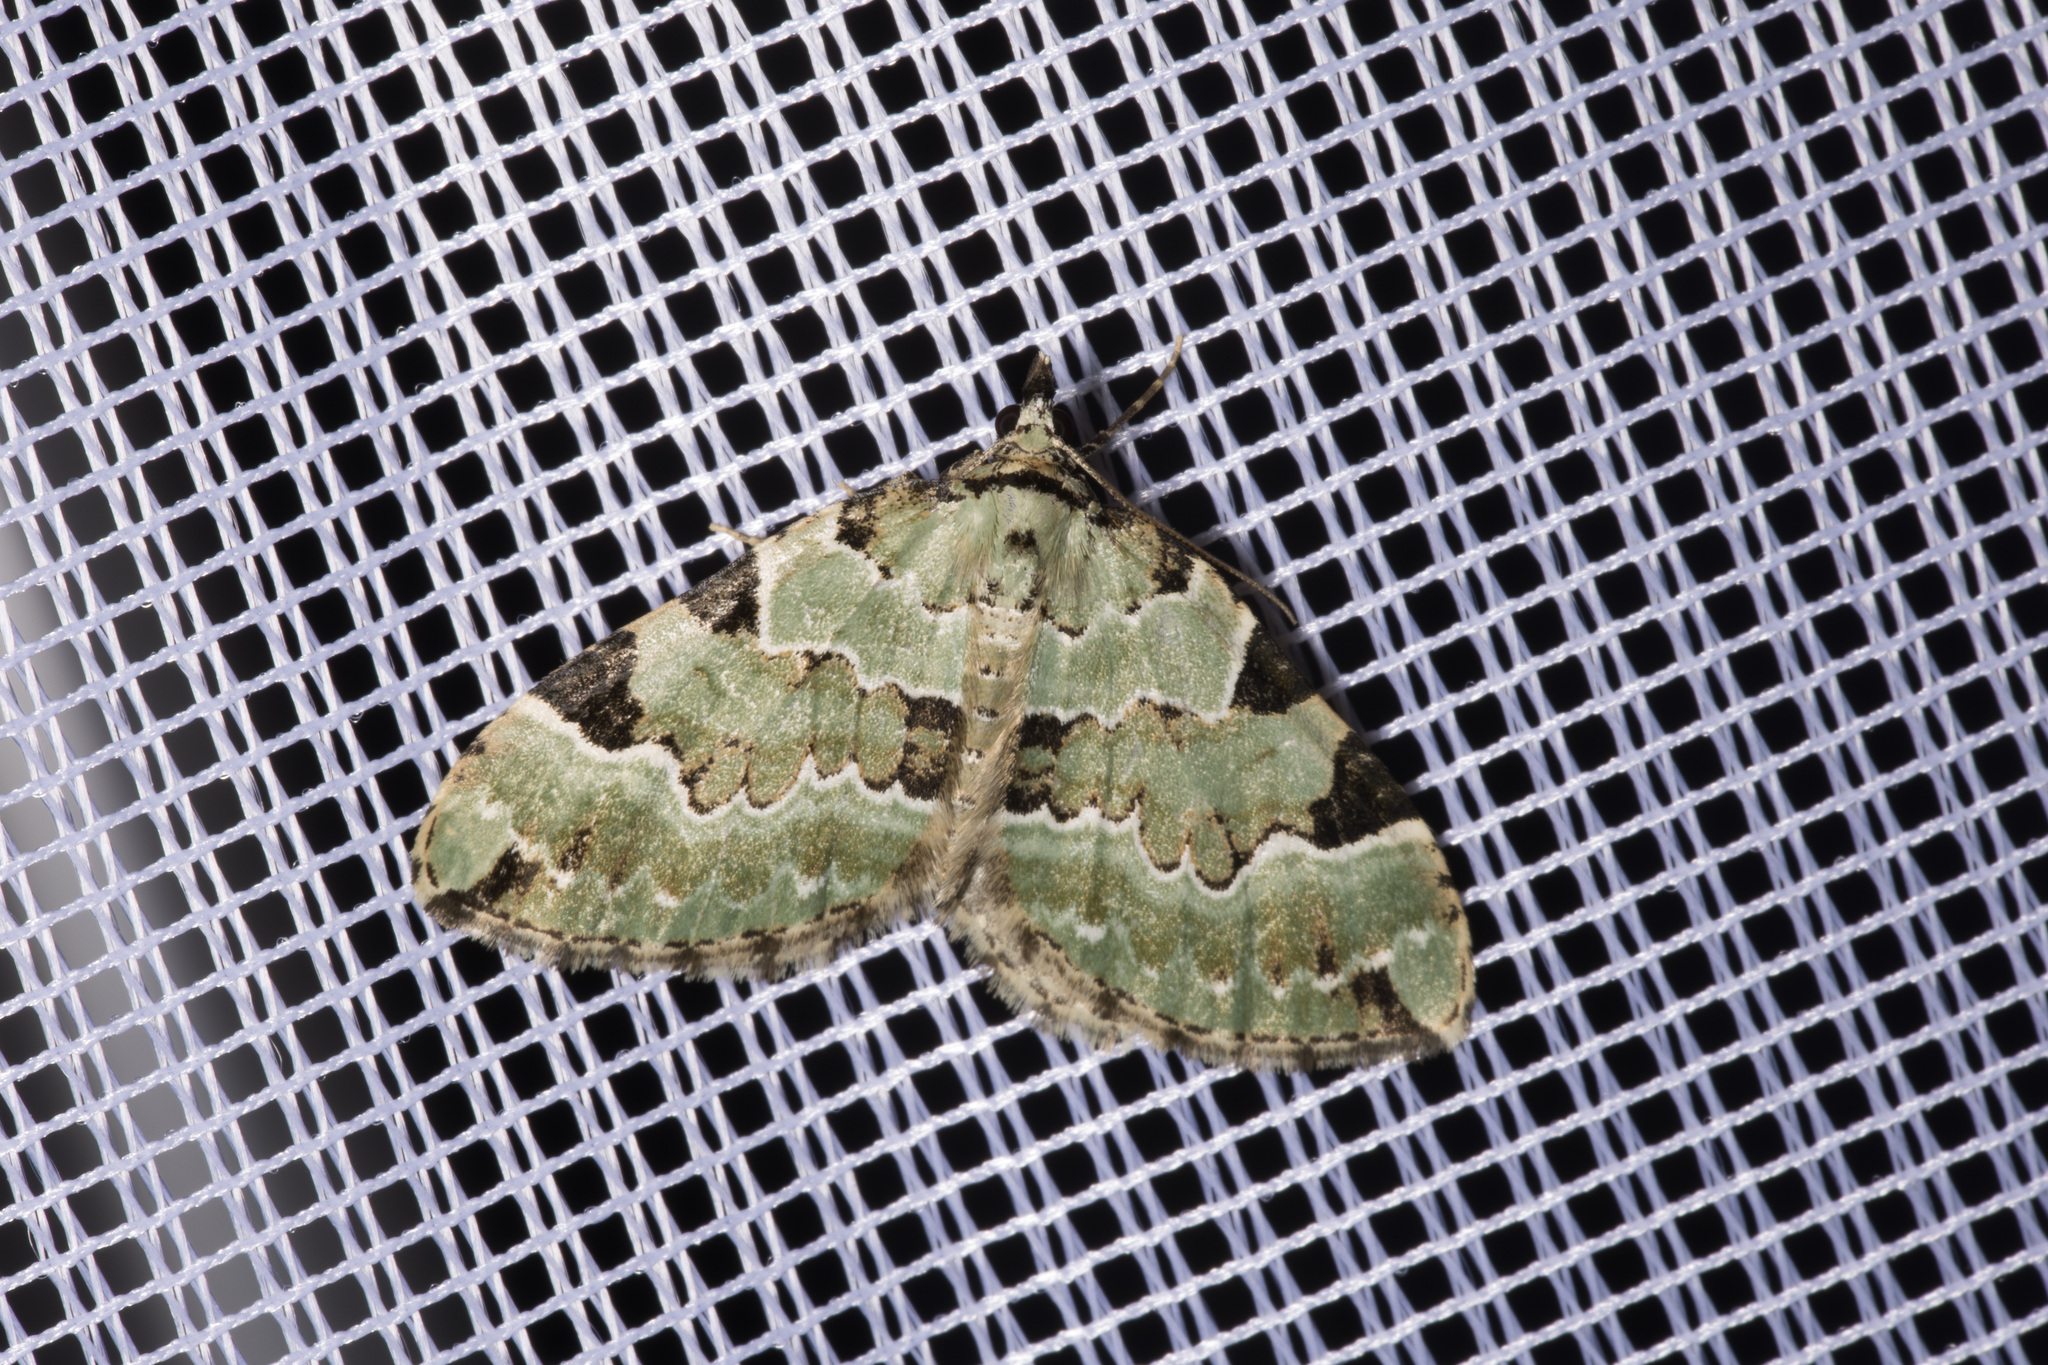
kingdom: Animalia
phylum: Arthropoda
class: Insecta
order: Lepidoptera
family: Geometridae
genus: Colostygia
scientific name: Colostygia pectinataria
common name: Green carpet
